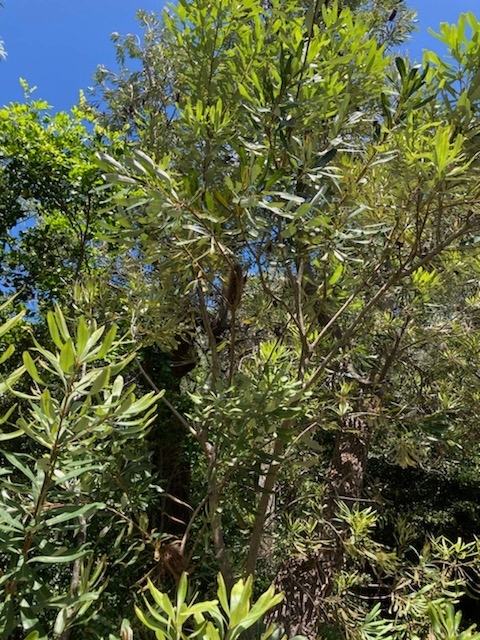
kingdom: Plantae
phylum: Tracheophyta
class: Magnoliopsida
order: Proteales
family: Proteaceae
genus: Banksia
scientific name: Banksia integrifolia
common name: White-honeysuckle
